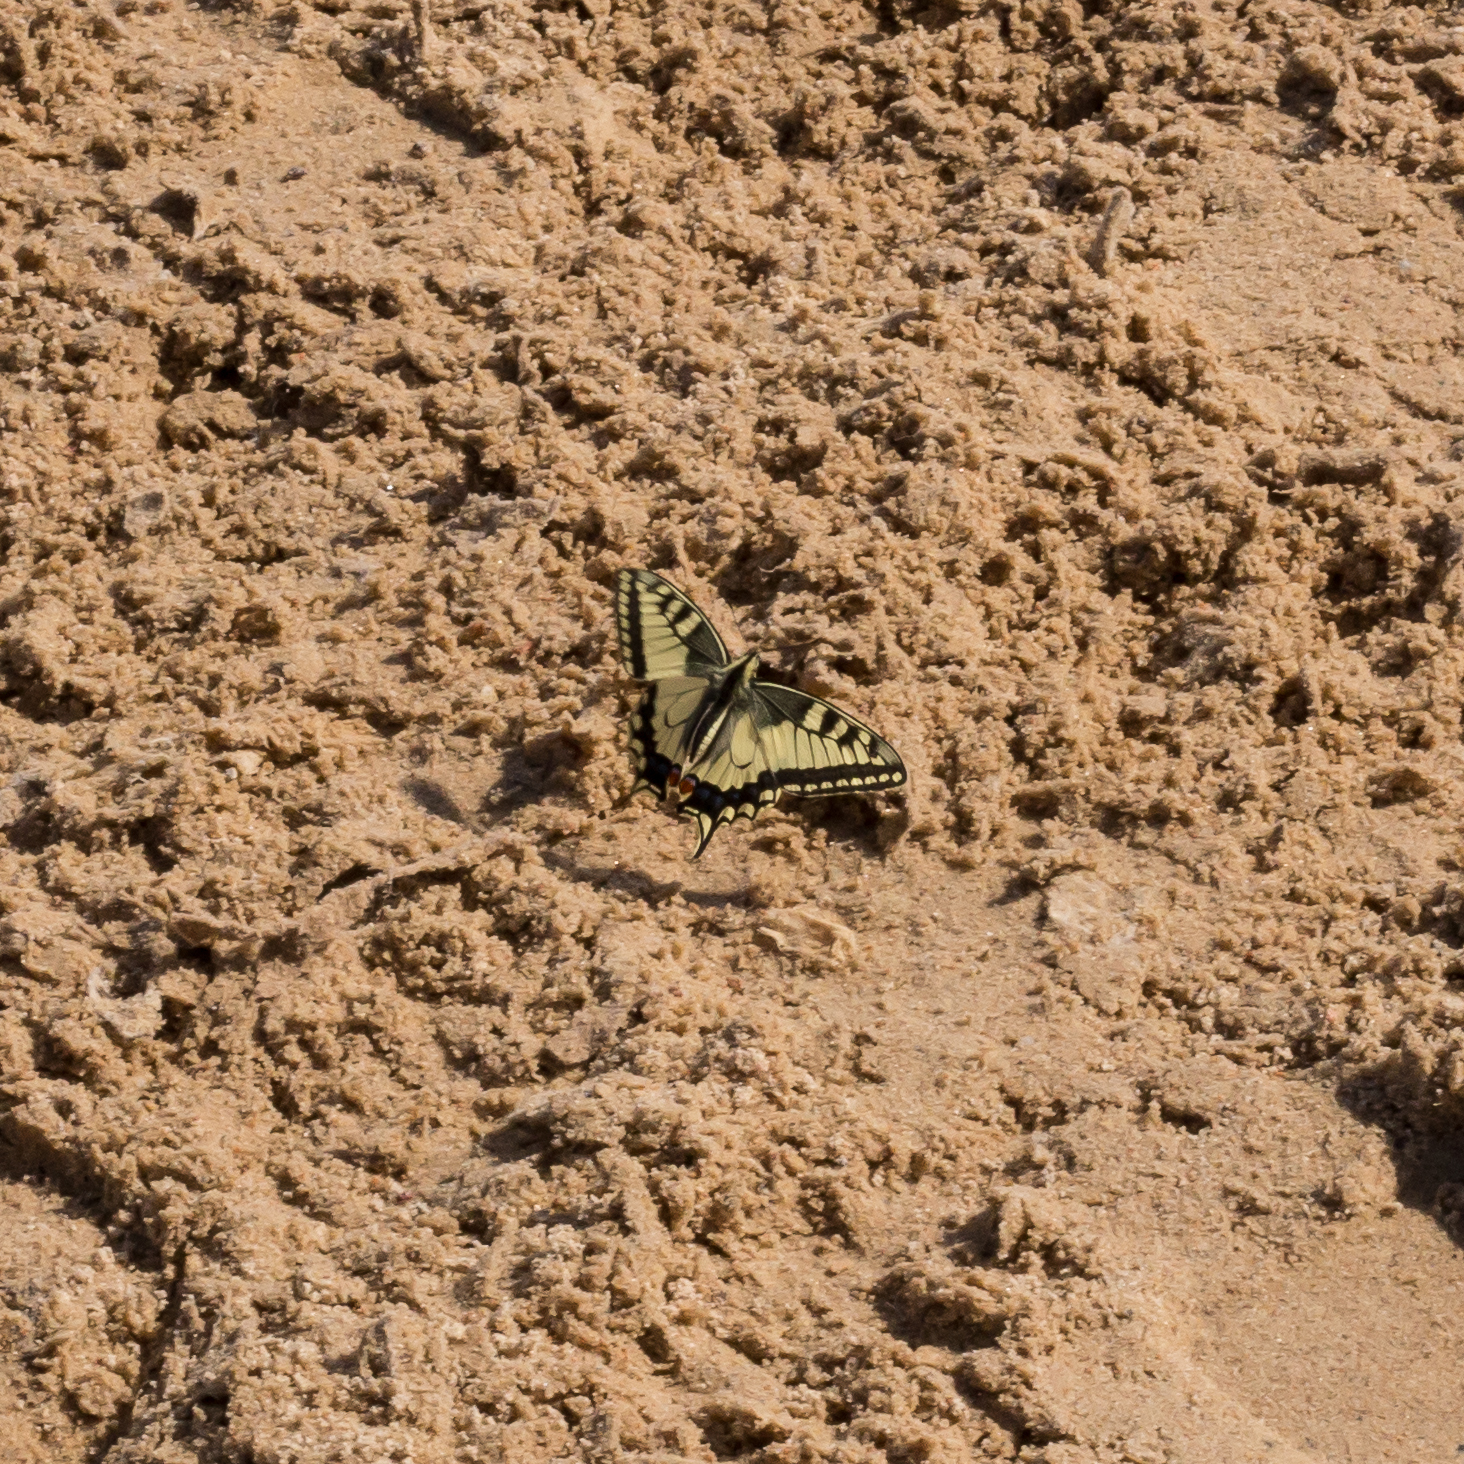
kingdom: Animalia
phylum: Arthropoda
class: Insecta
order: Lepidoptera
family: Papilionidae
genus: Papilio
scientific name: Papilio machaon
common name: Swallowtail
